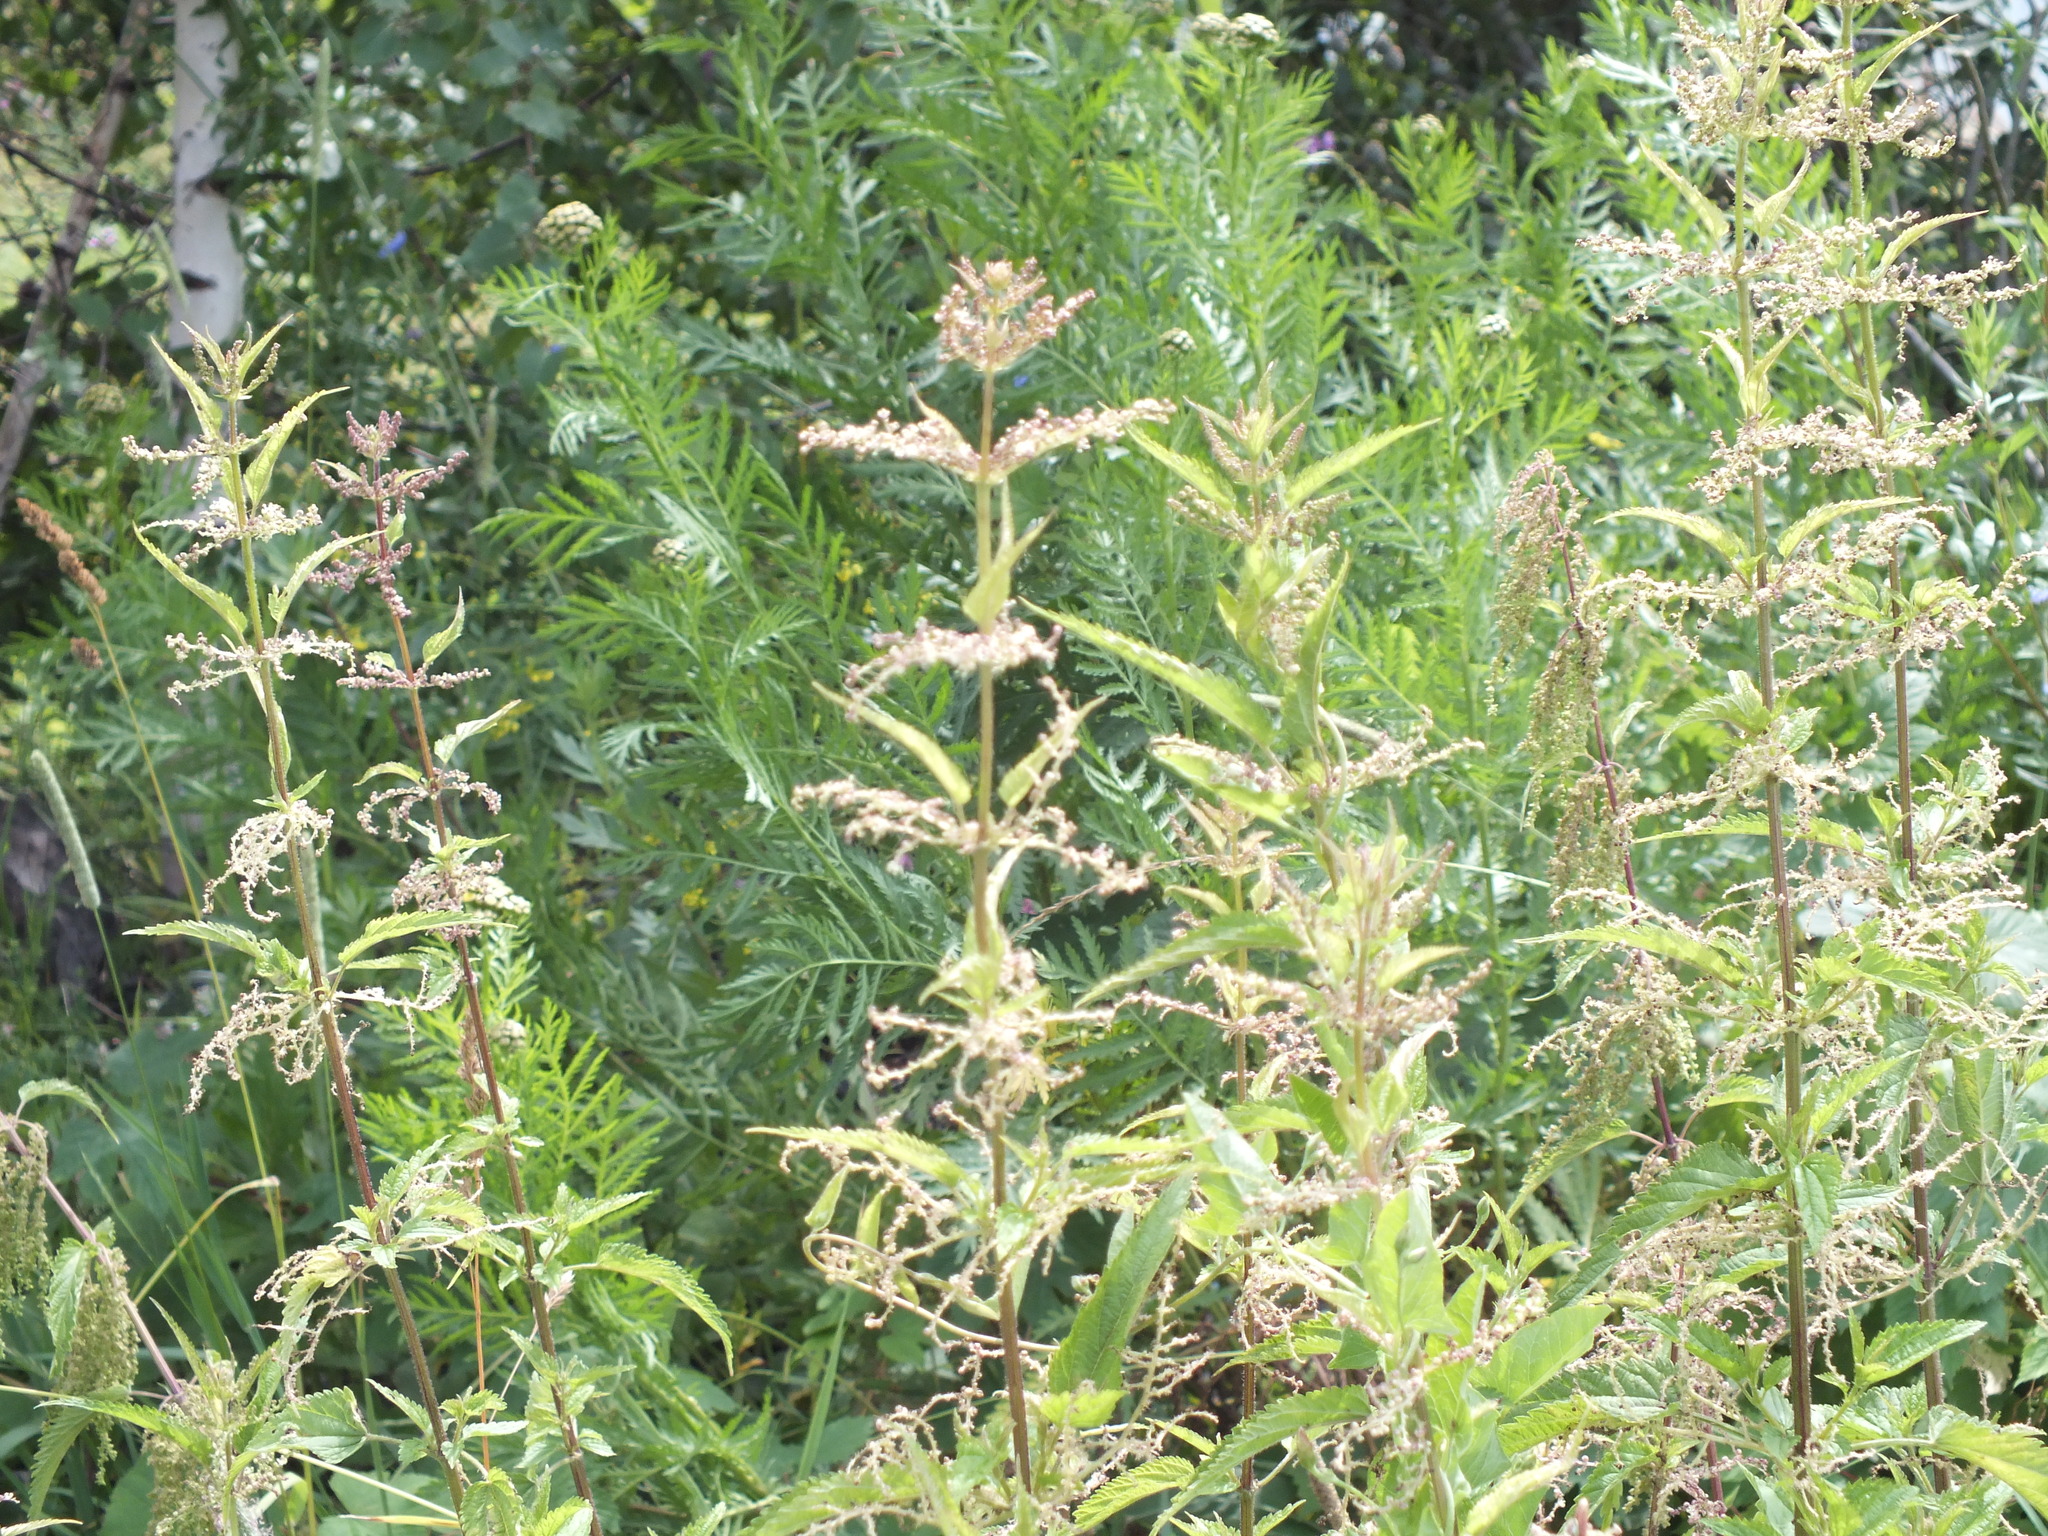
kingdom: Plantae
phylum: Tracheophyta
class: Magnoliopsida
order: Rosales
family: Urticaceae
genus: Urtica
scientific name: Urtica dioica
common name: Common nettle
